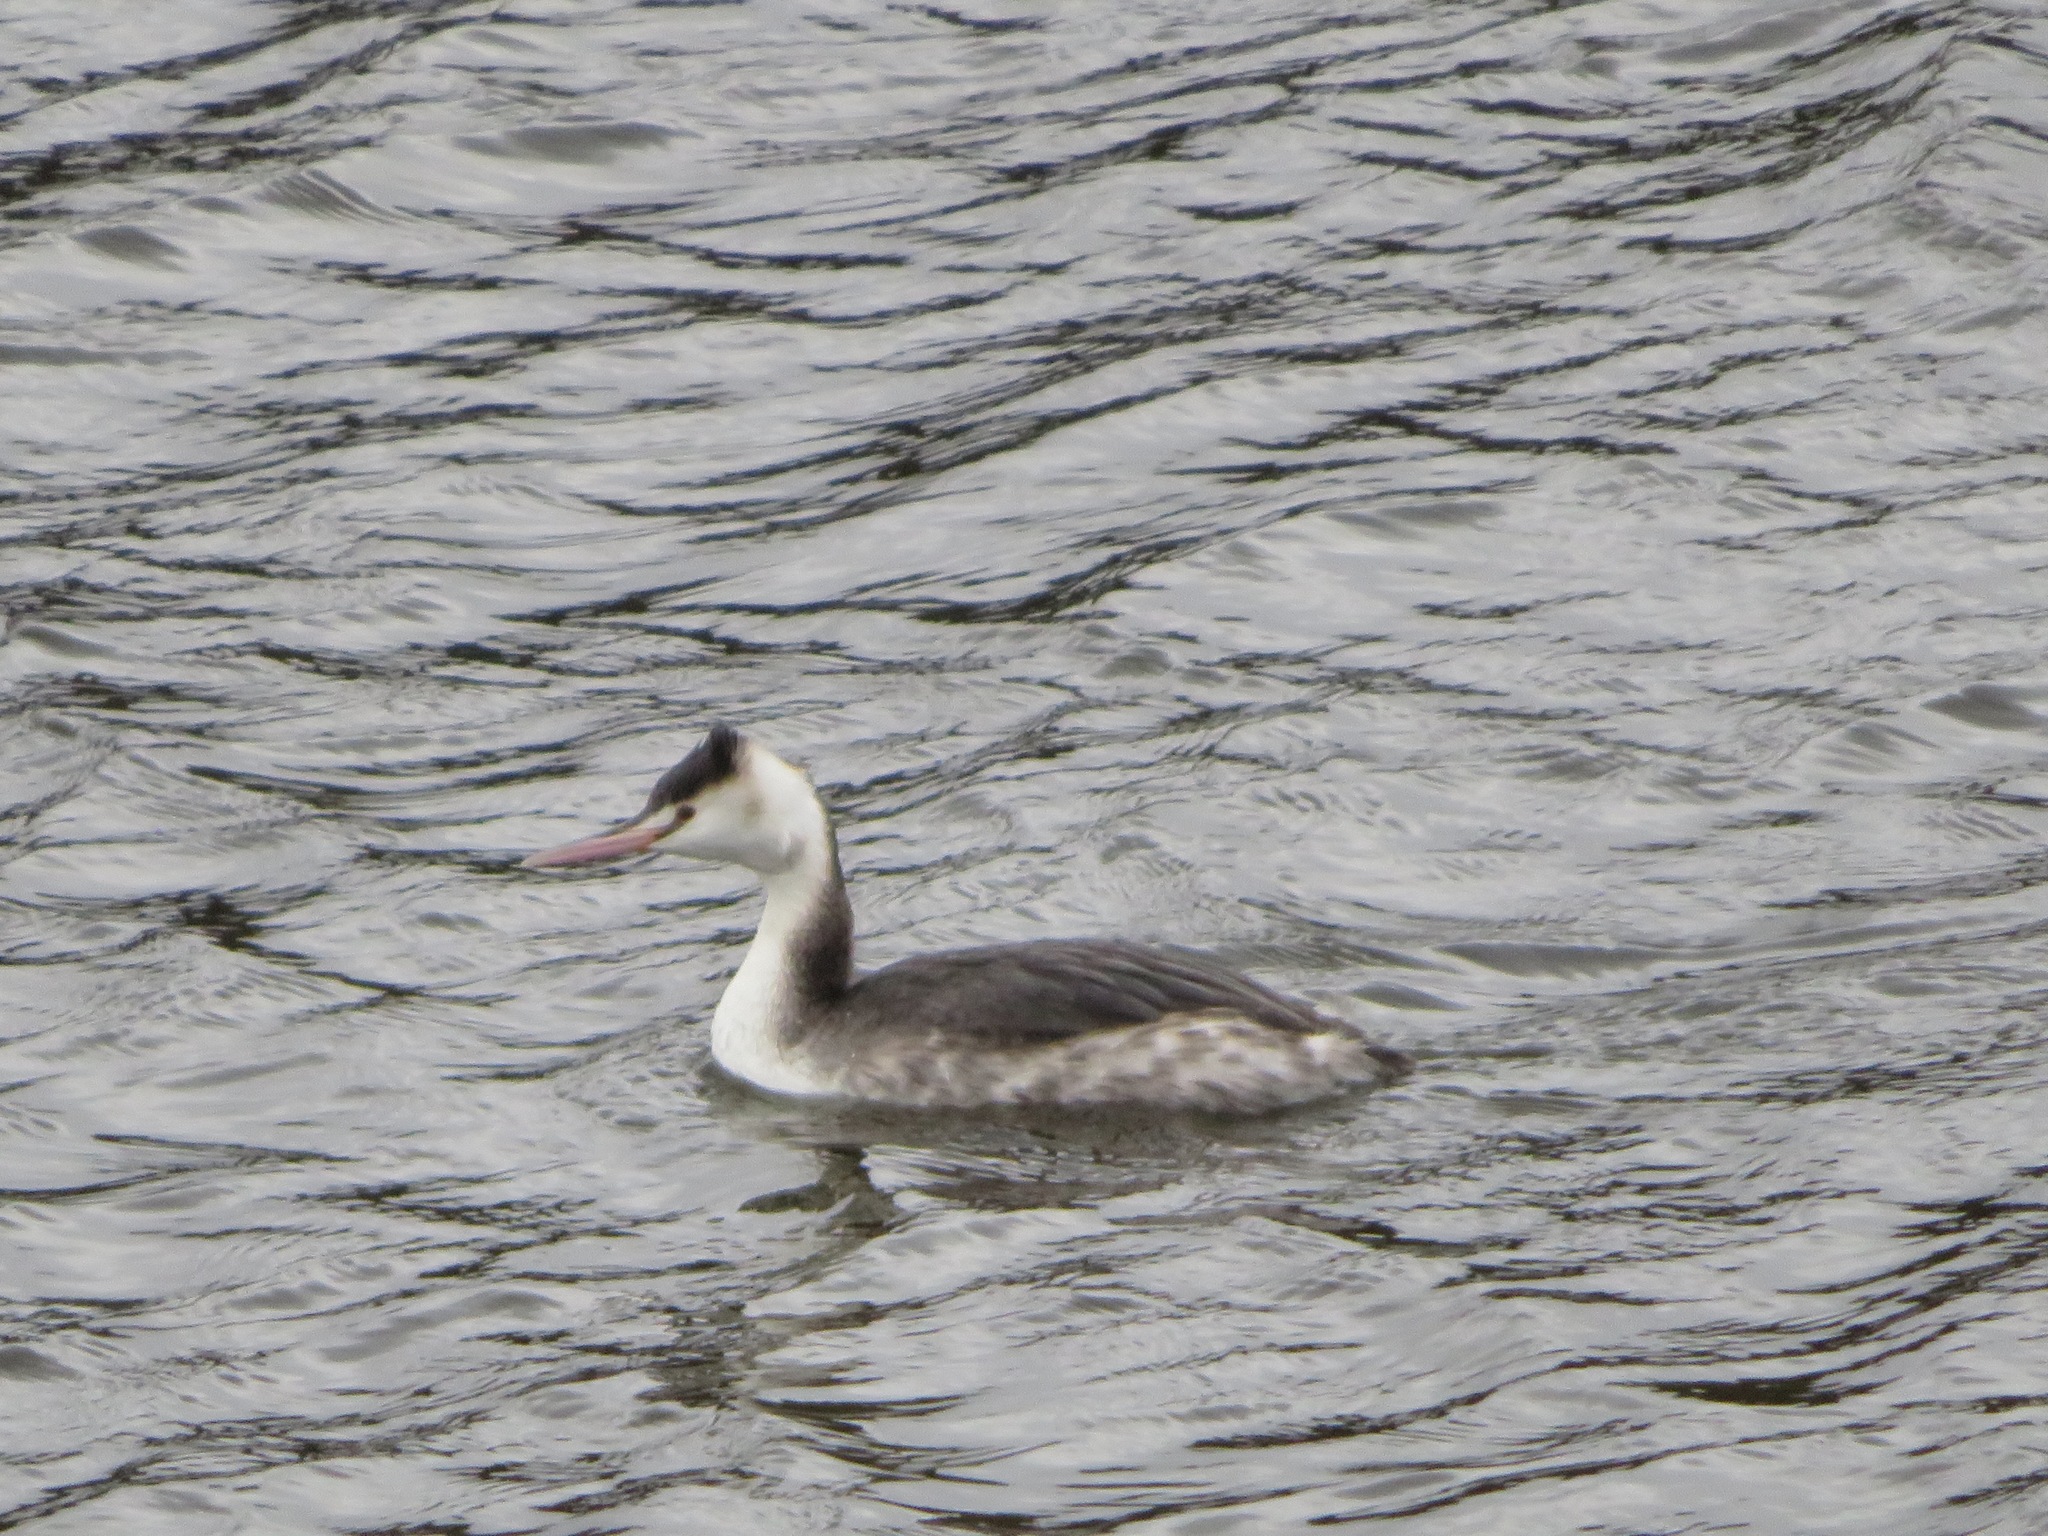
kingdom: Animalia
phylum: Chordata
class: Aves
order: Podicipediformes
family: Podicipedidae
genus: Podiceps
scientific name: Podiceps cristatus
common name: Great crested grebe
